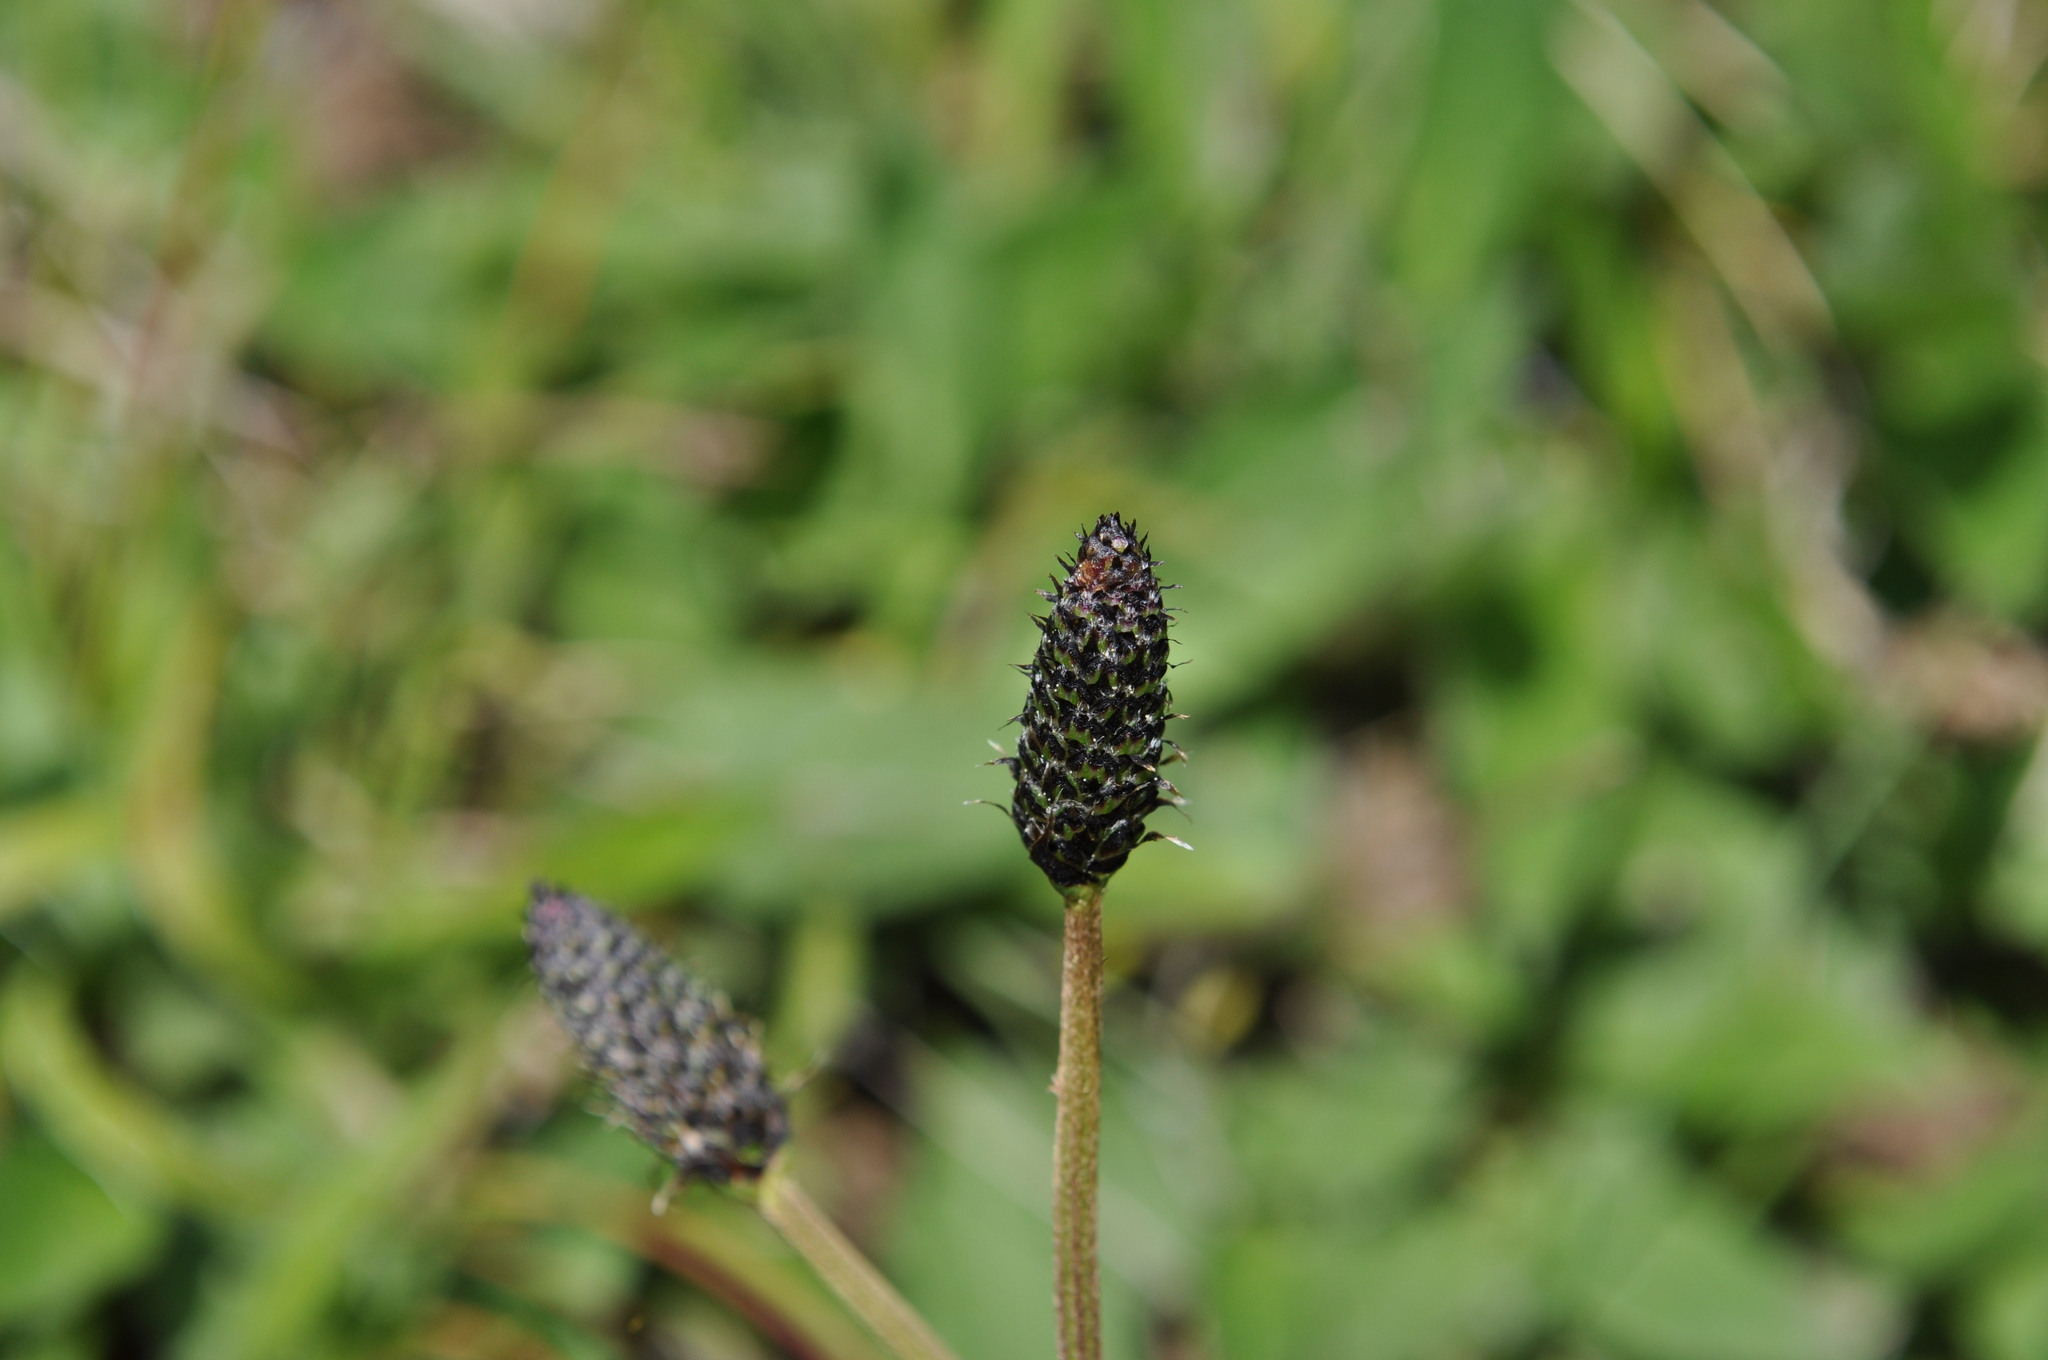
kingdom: Plantae
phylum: Tracheophyta
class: Magnoliopsida
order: Lamiales
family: Plantaginaceae
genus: Plantago
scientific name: Plantago lanceolata
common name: Ribwort plantain
